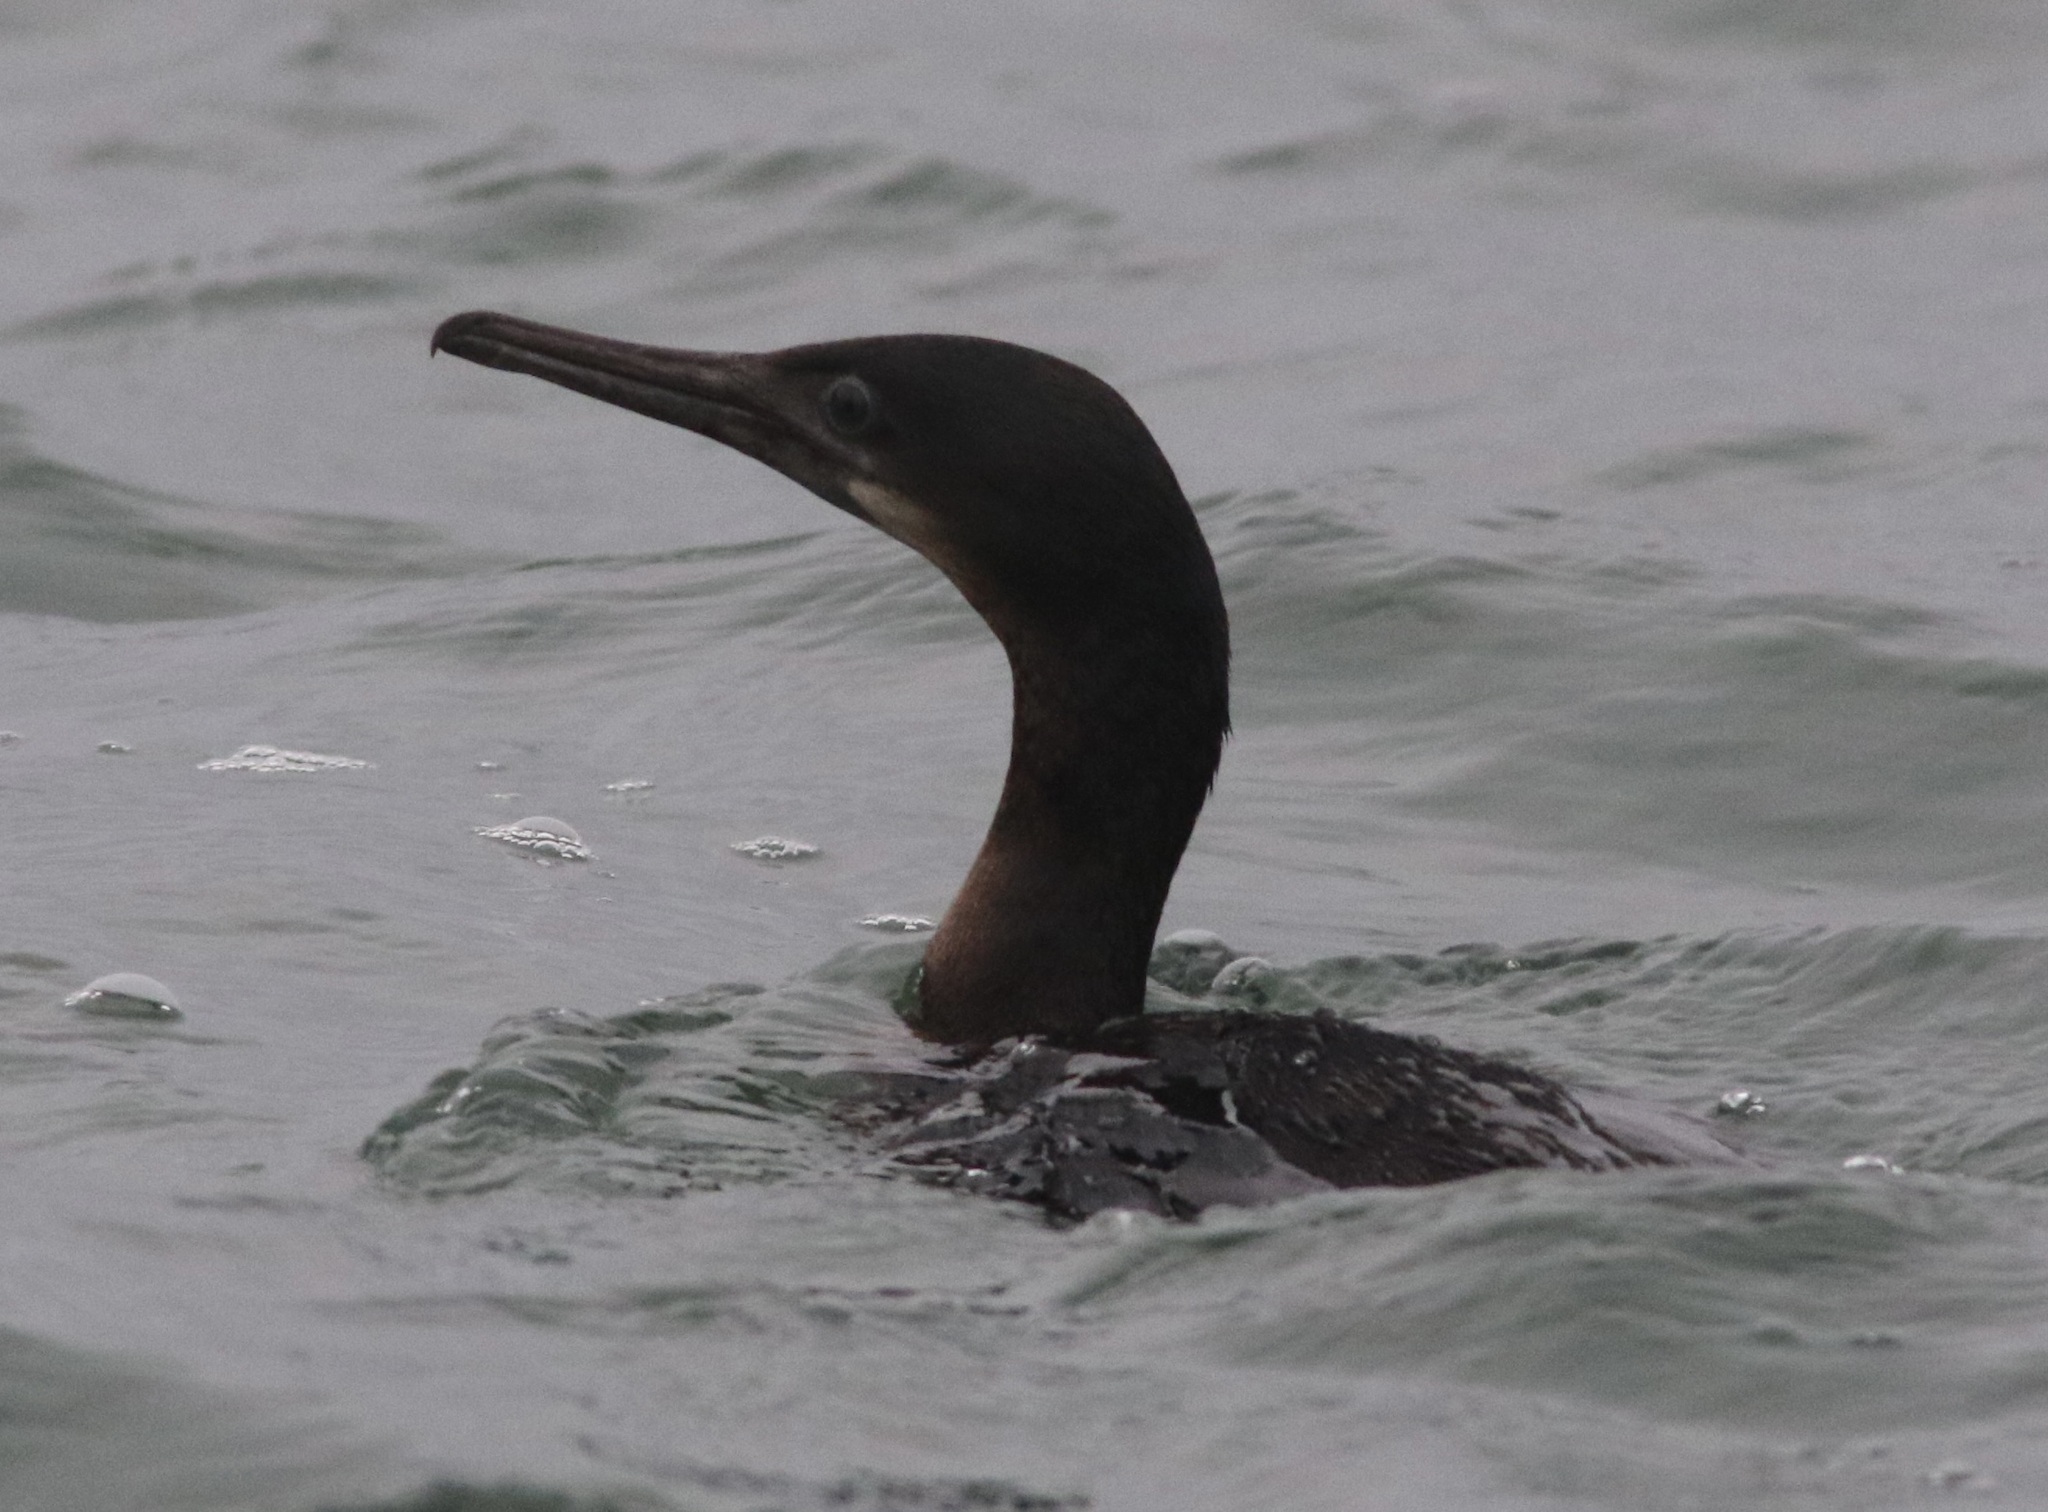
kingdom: Animalia
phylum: Chordata
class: Aves
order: Suliformes
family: Phalacrocoracidae
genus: Urile
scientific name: Urile penicillatus
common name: Brandt's cormorant
